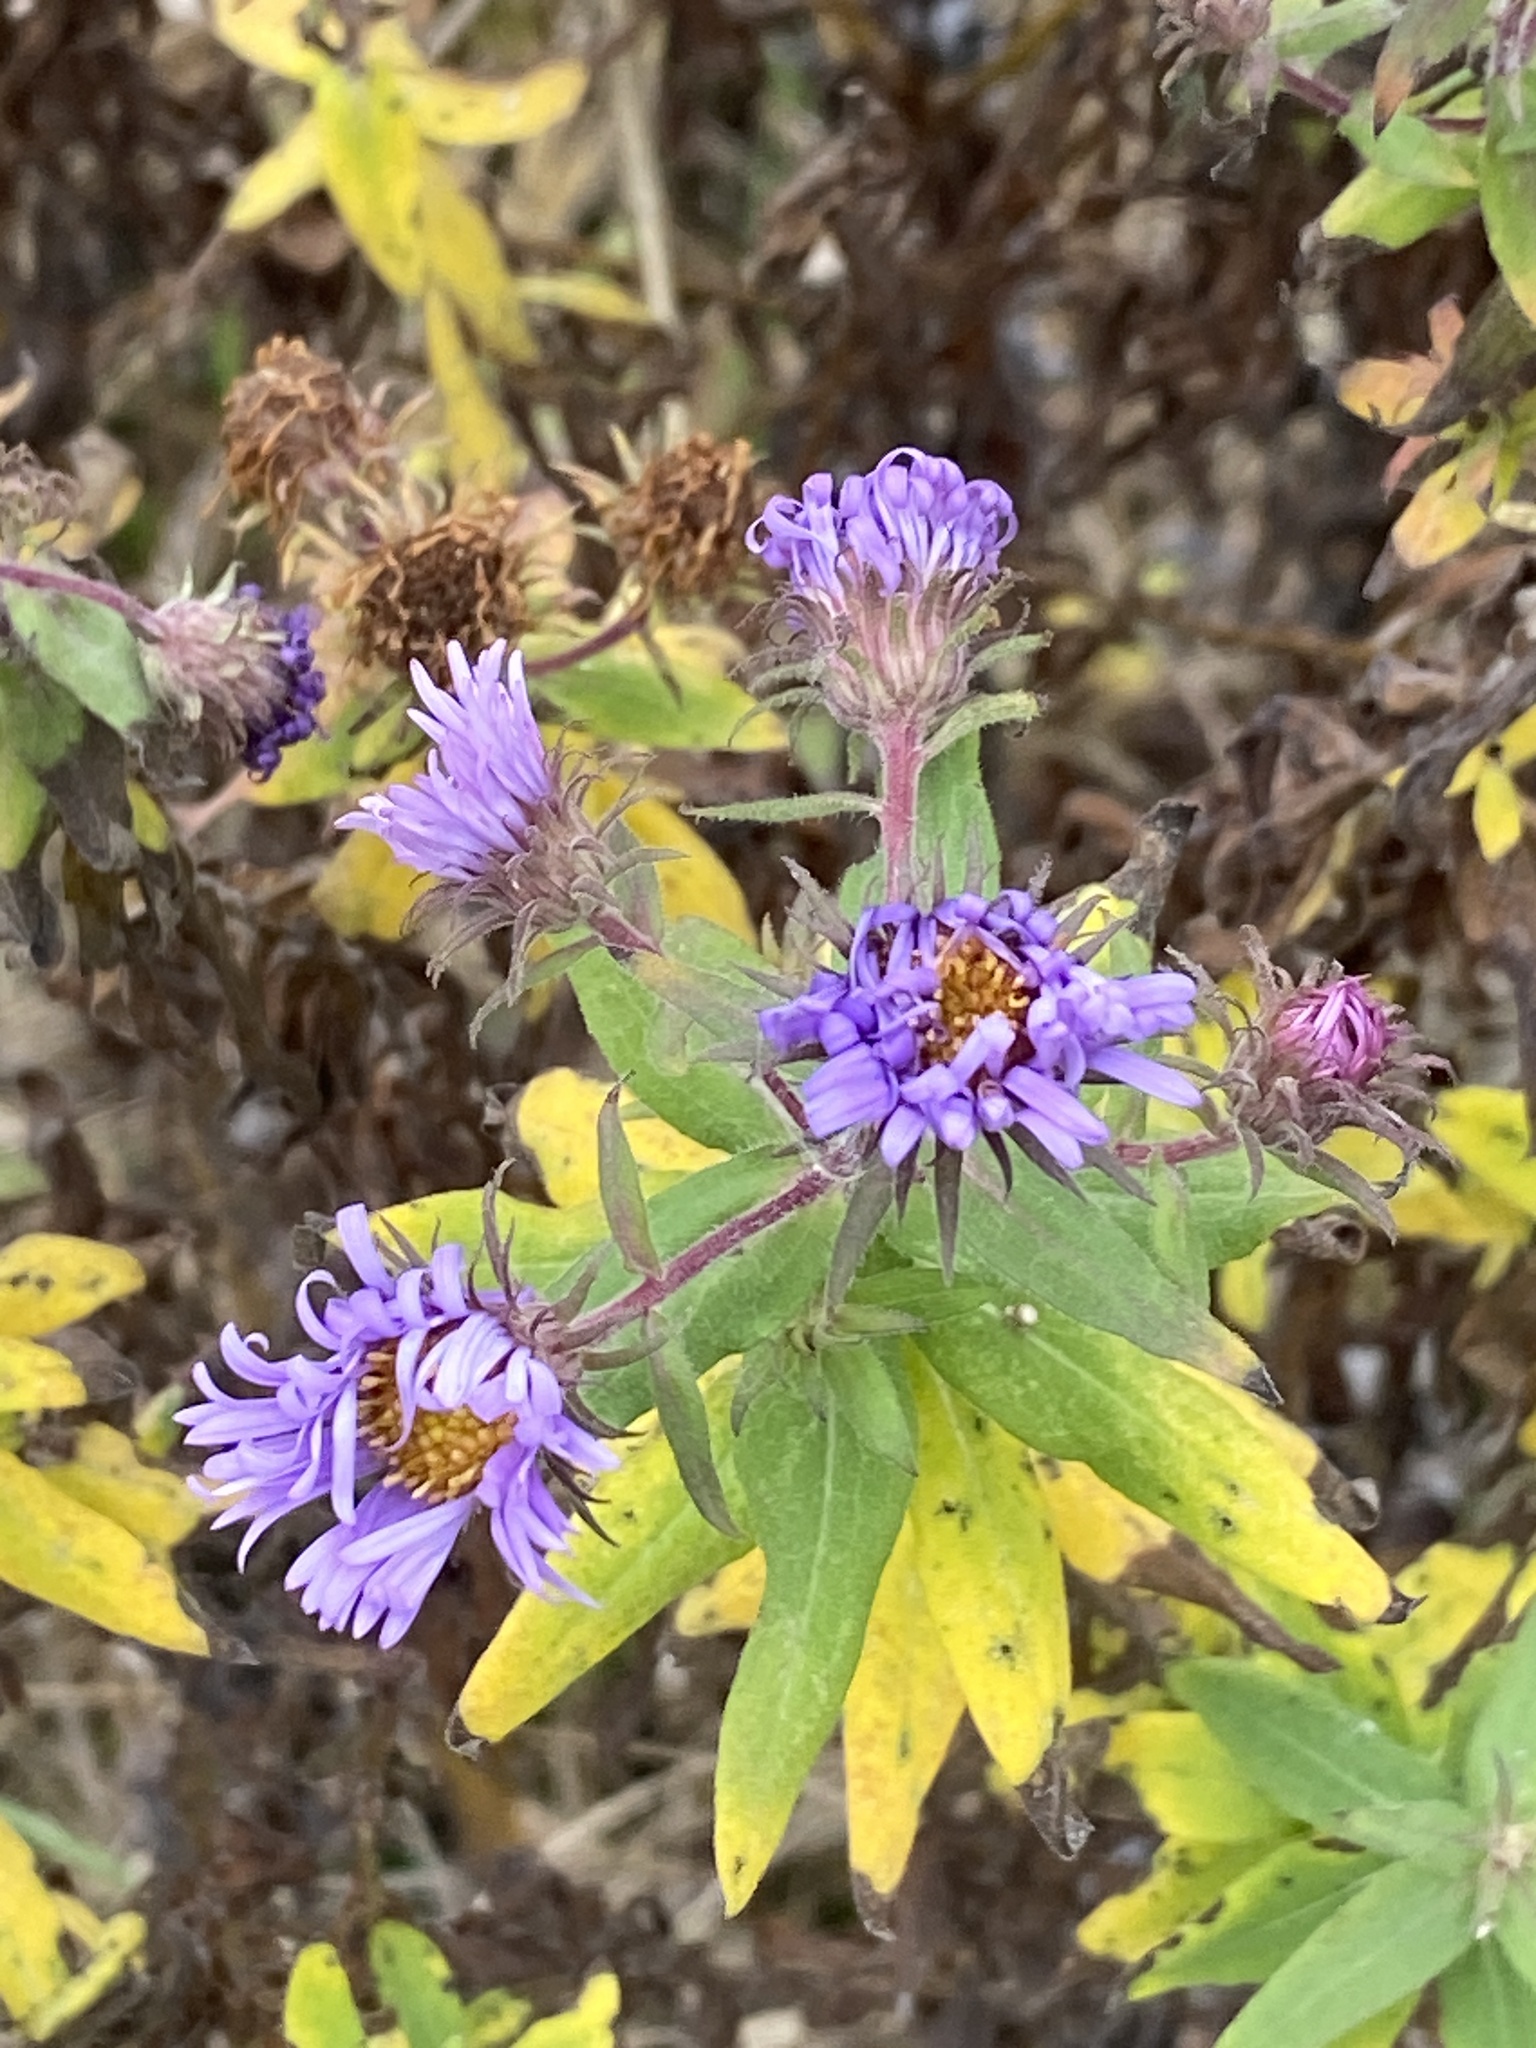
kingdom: Plantae
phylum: Tracheophyta
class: Magnoliopsida
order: Asterales
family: Asteraceae
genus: Symphyotrichum
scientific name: Symphyotrichum novae-angliae
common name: Michaelmas daisy
